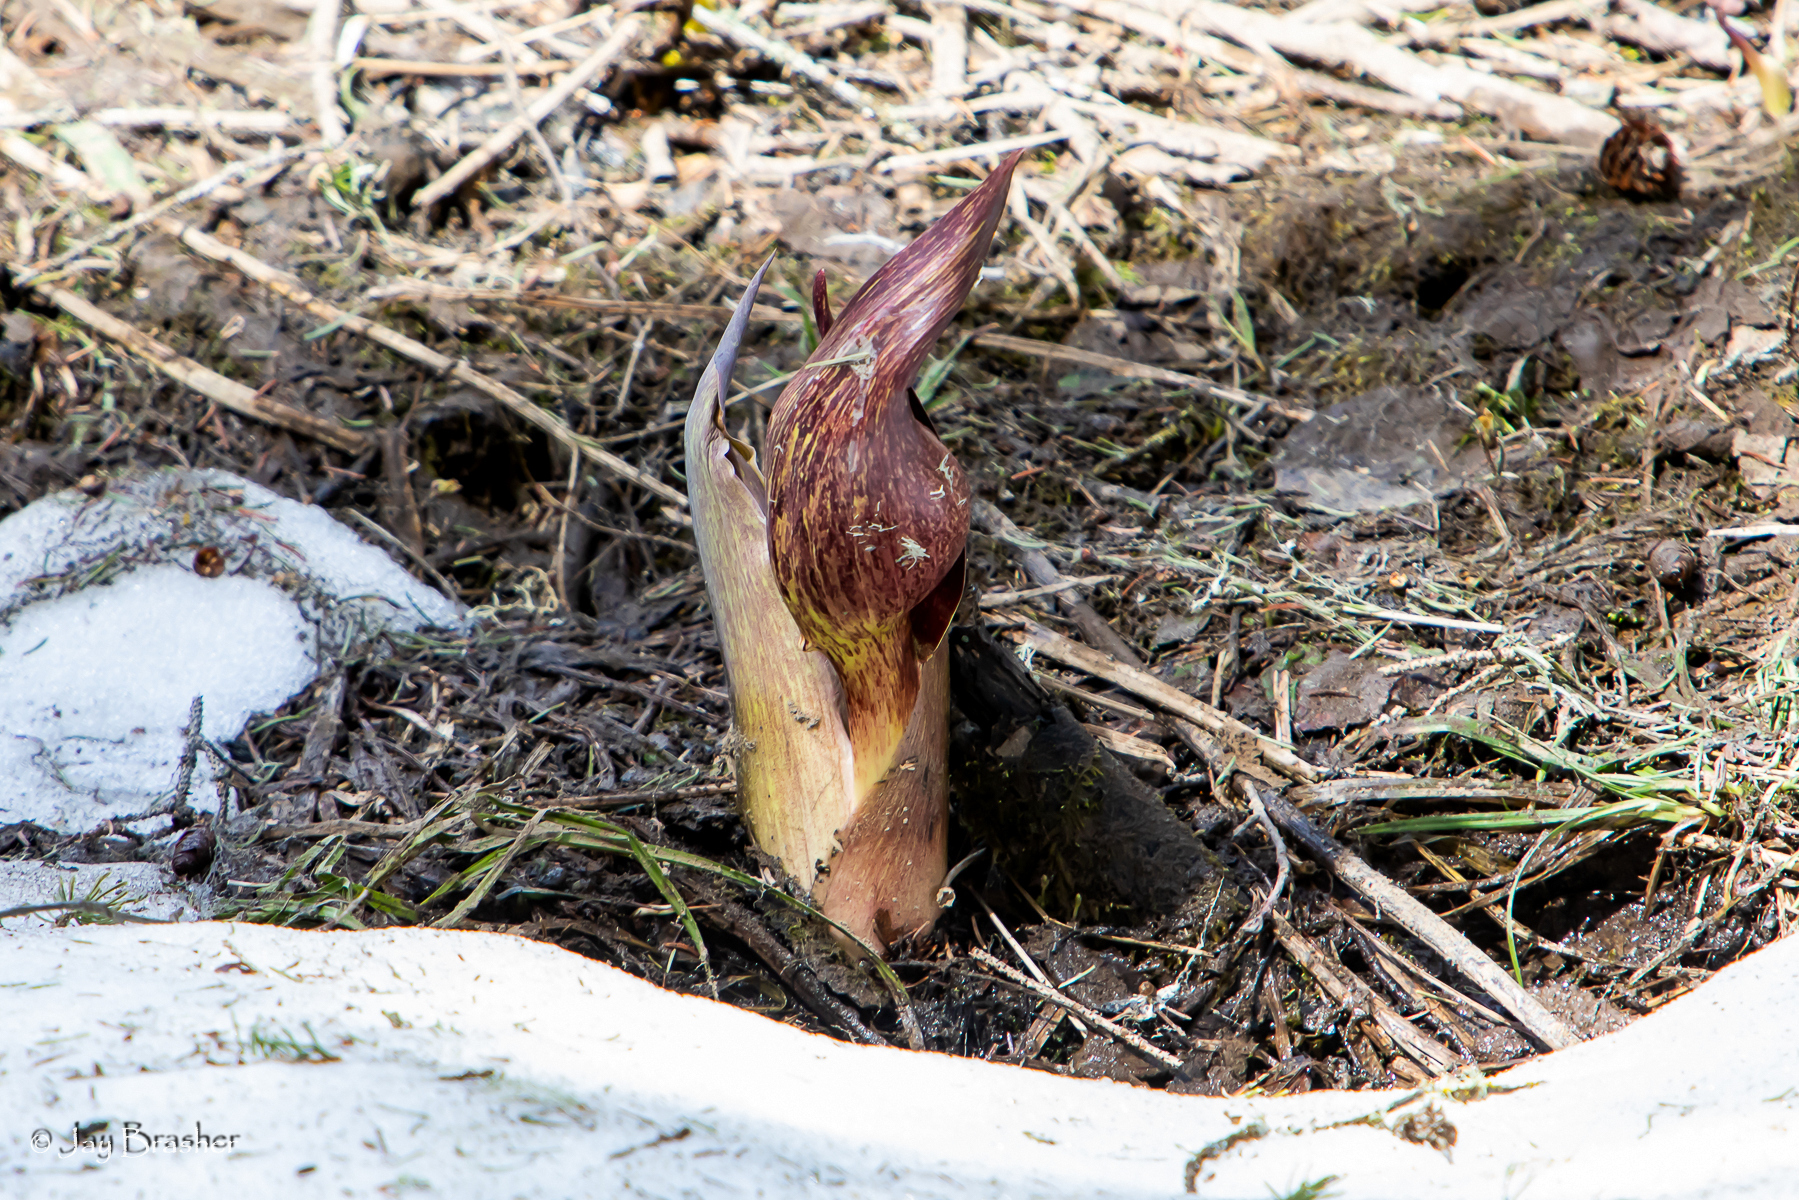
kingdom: Plantae
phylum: Tracheophyta
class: Liliopsida
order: Alismatales
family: Araceae
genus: Symplocarpus
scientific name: Symplocarpus foetidus
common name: Eastern skunk cabbage
